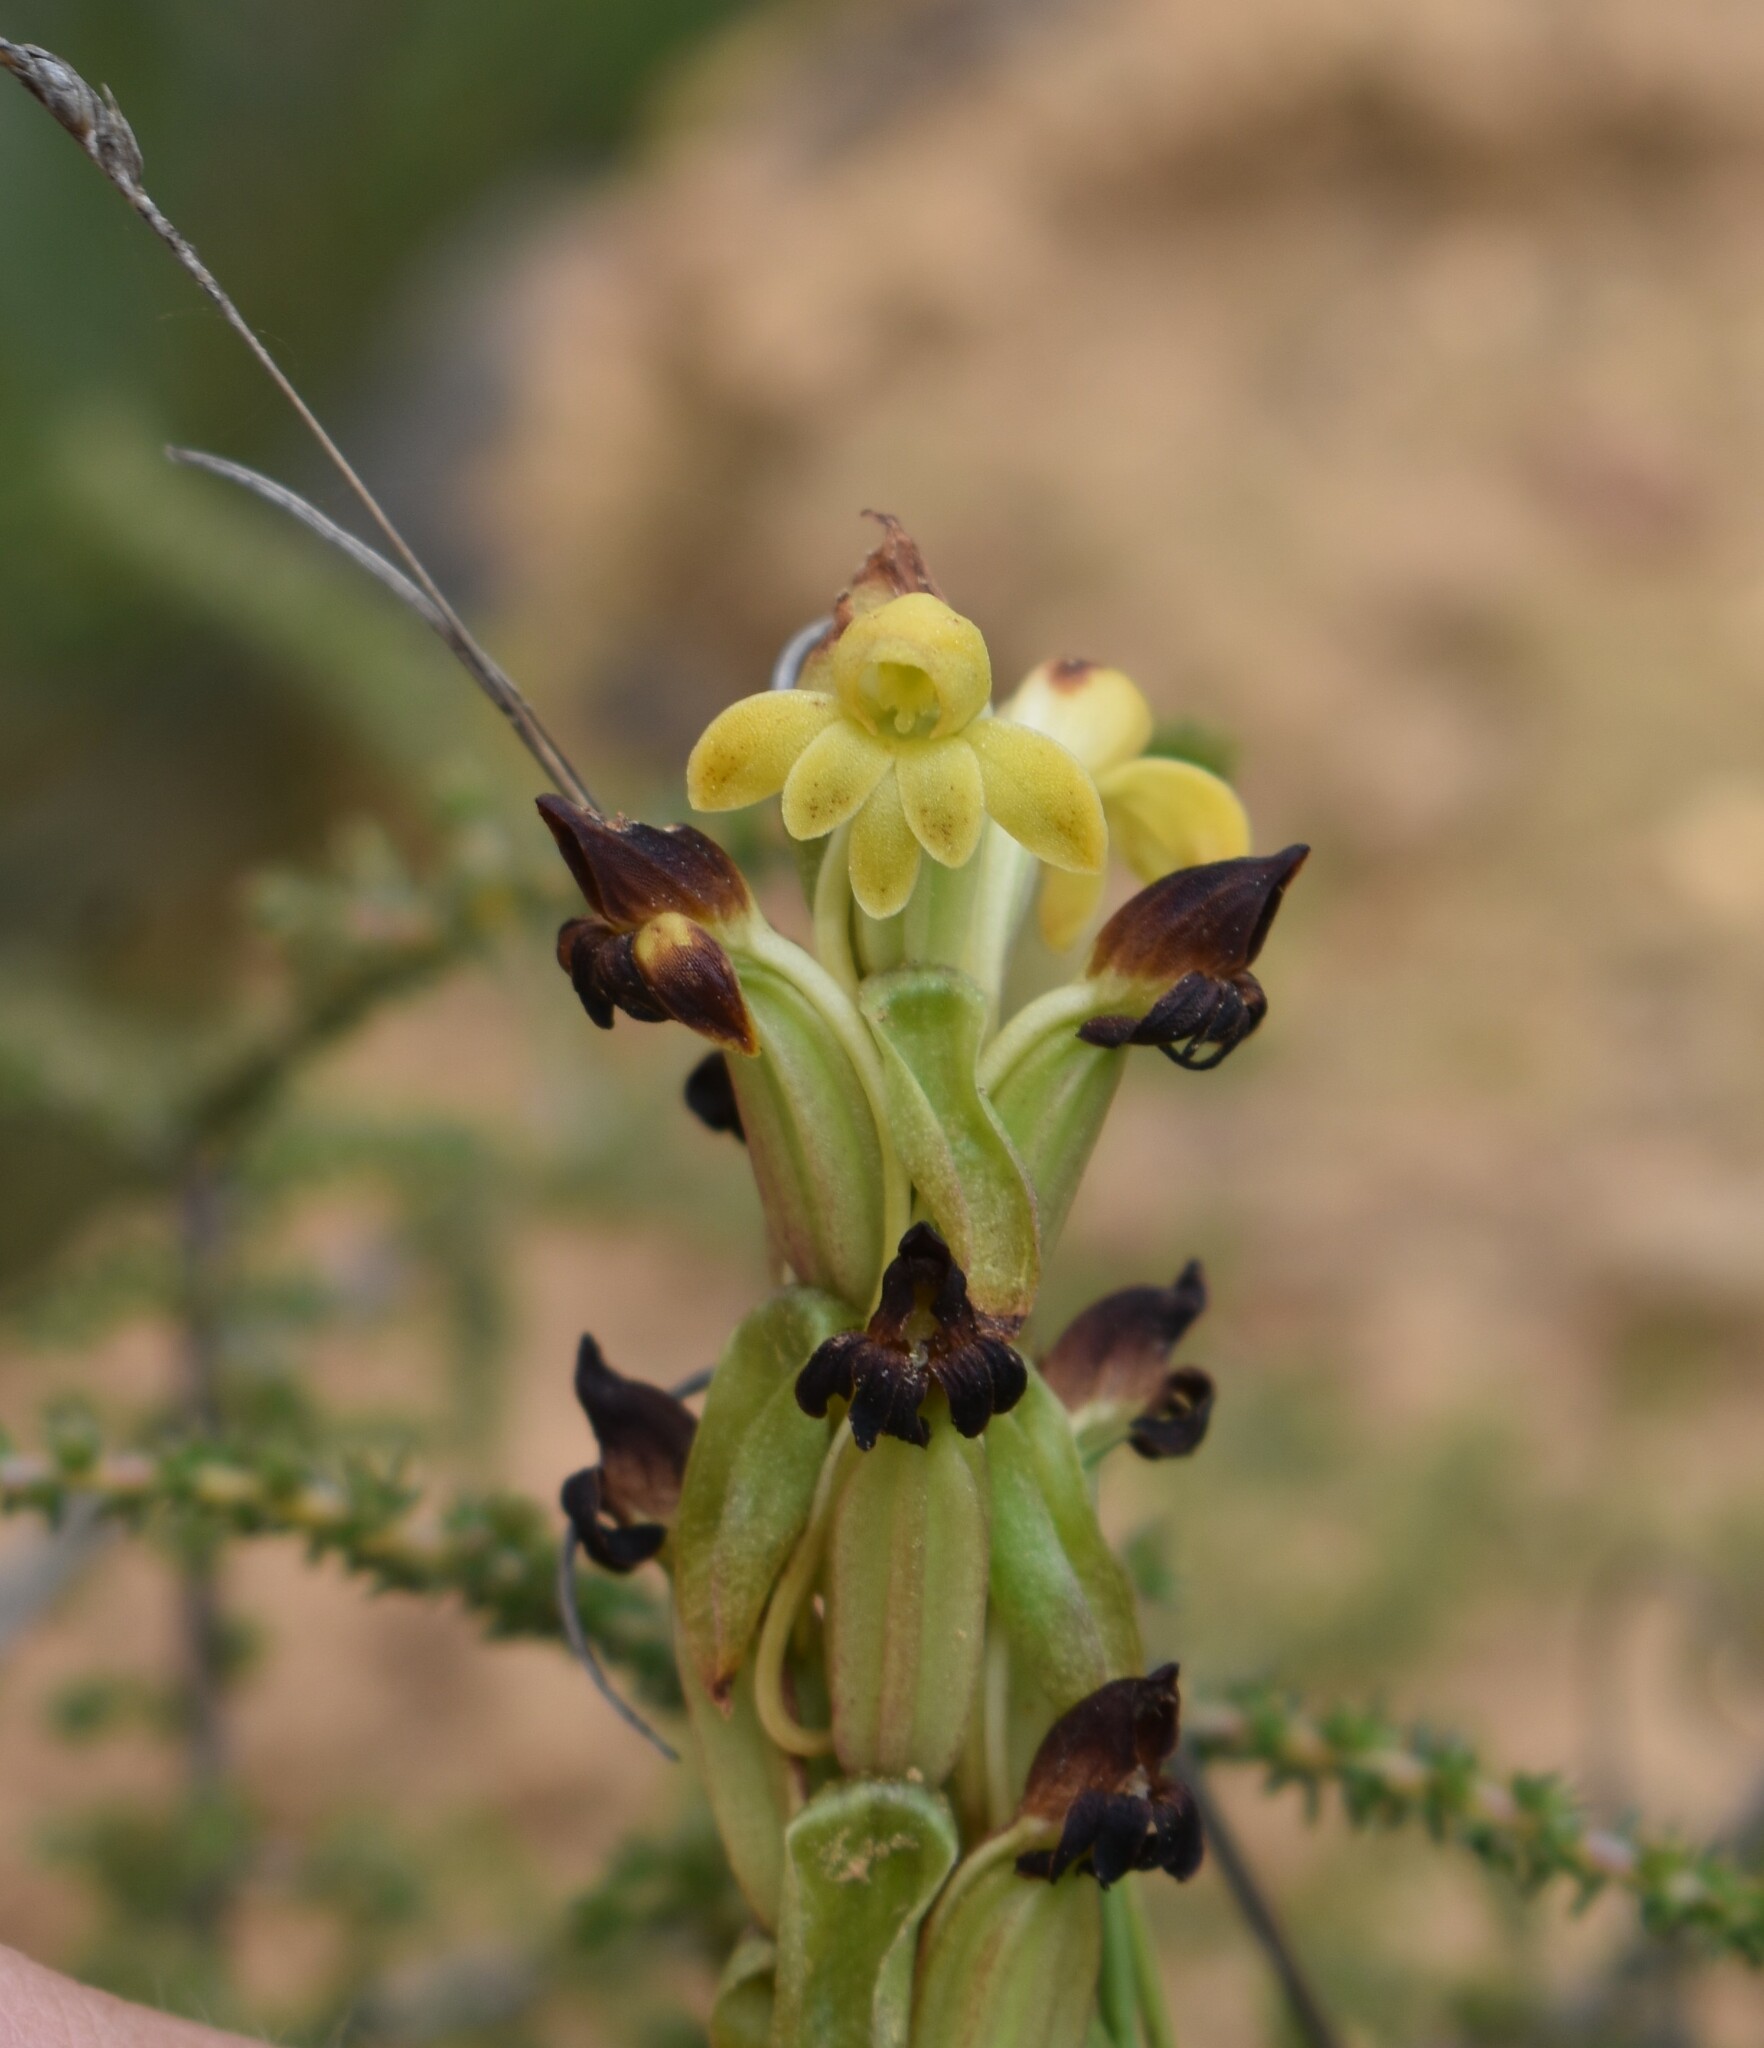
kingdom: Plantae
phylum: Tracheophyta
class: Liliopsida
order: Asparagales
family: Orchidaceae
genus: Satyrium
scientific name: Satyrium bicorne
